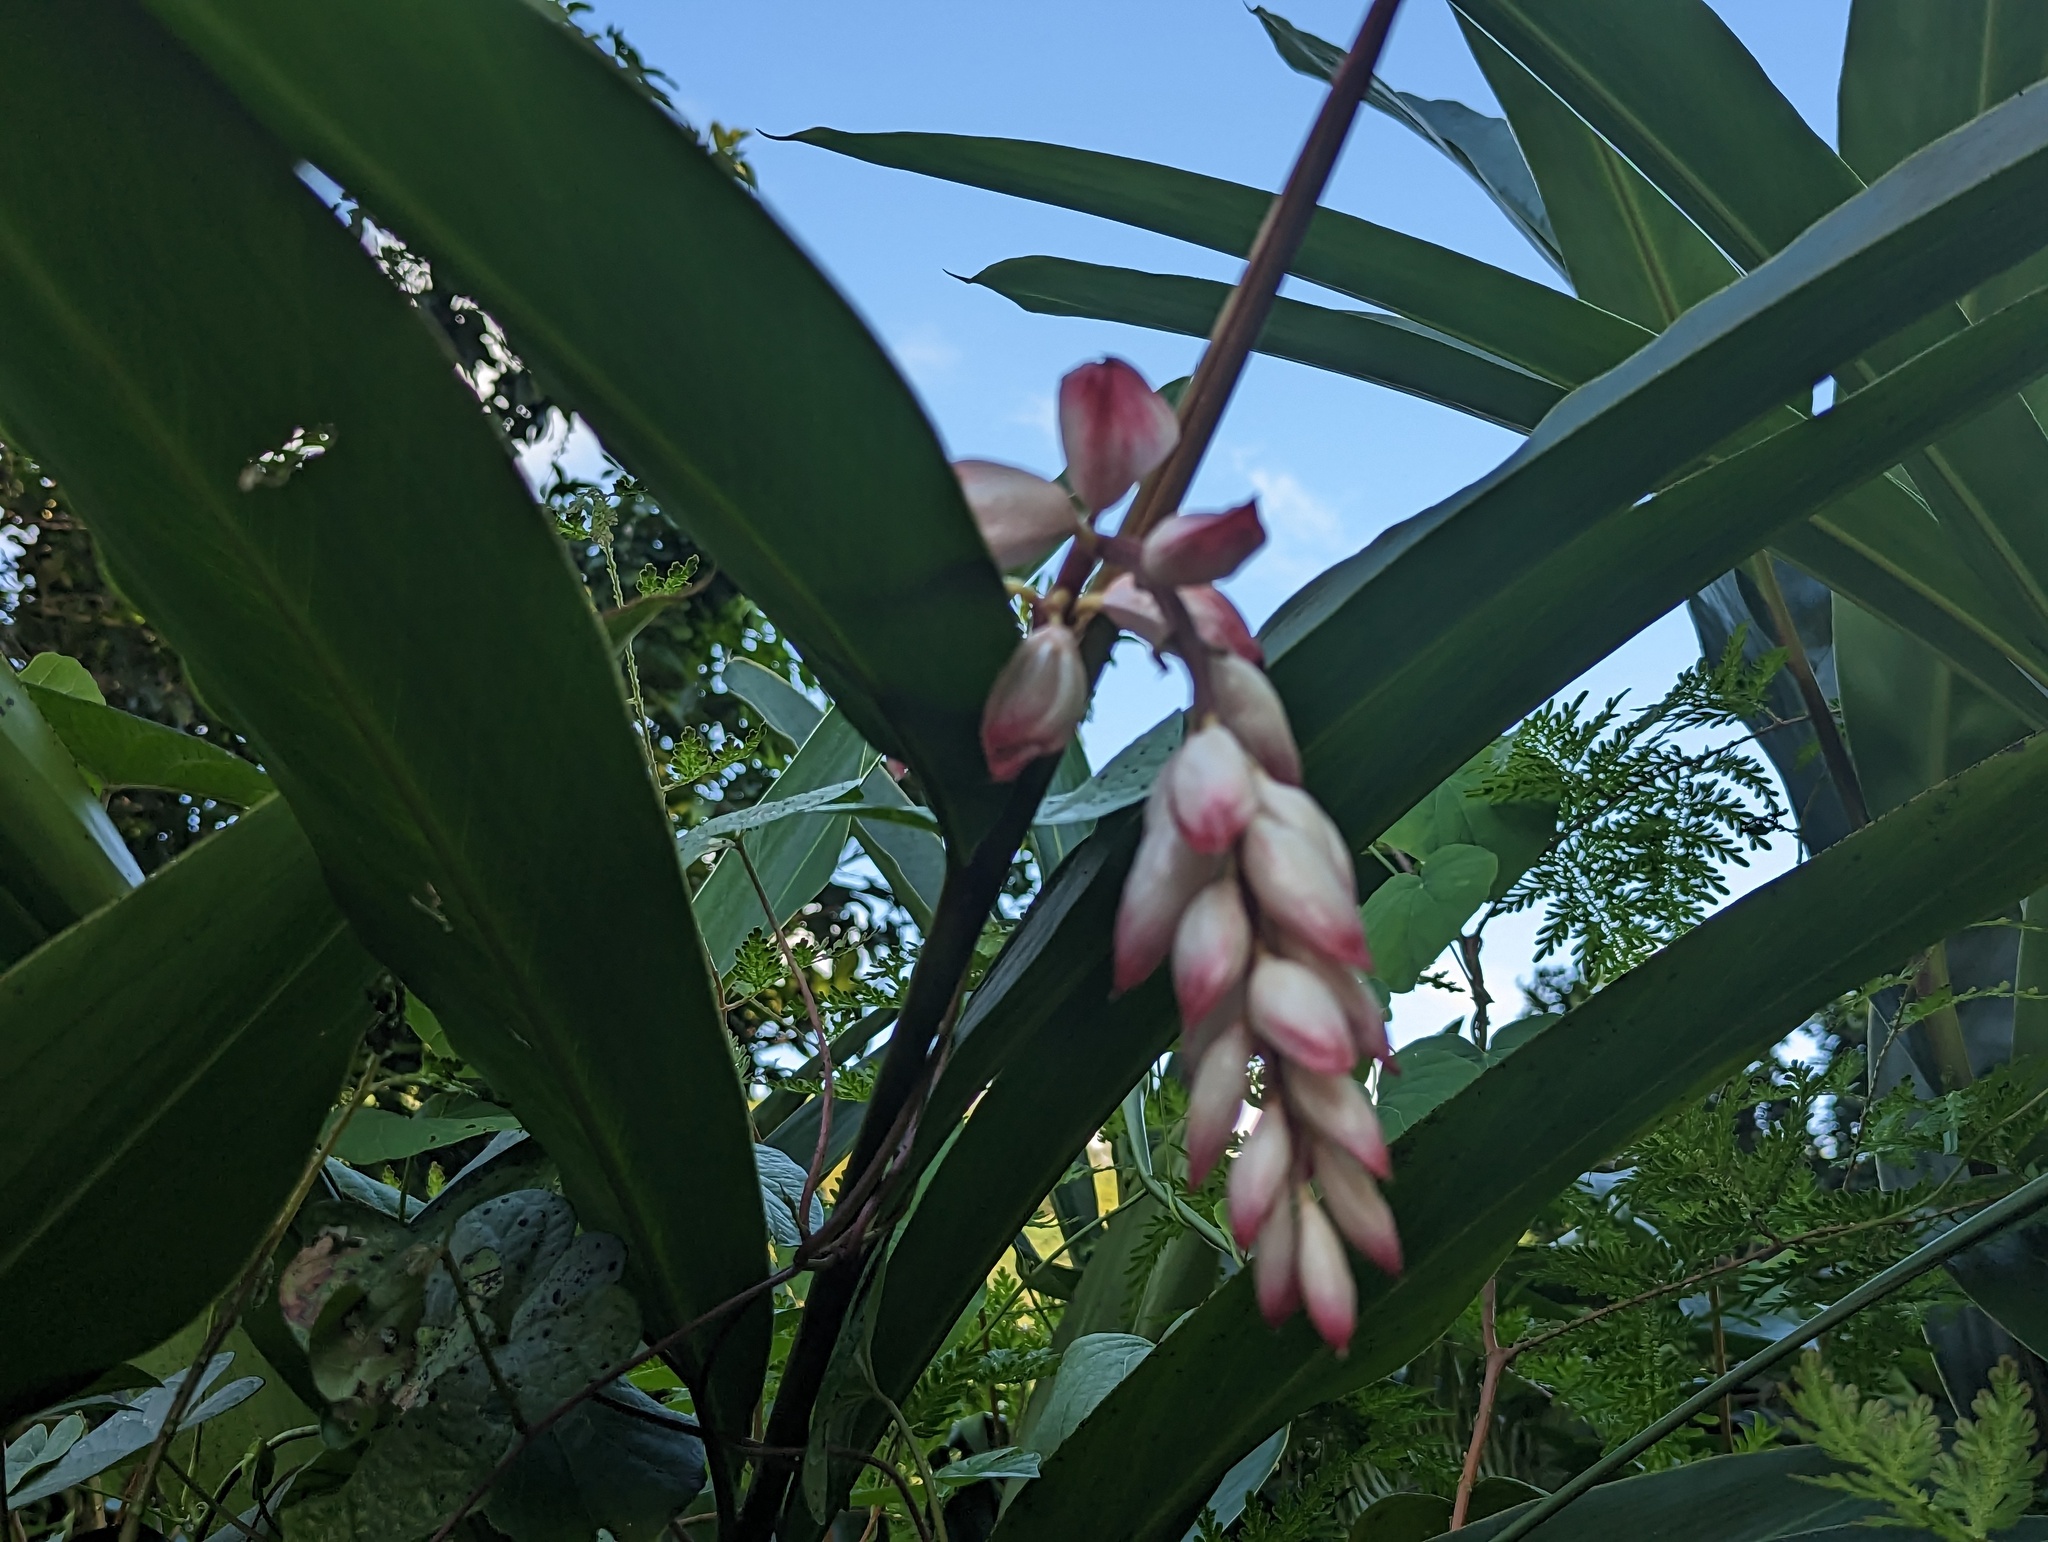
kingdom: Plantae
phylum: Tracheophyta
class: Liliopsida
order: Zingiberales
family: Zingiberaceae
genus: Alpinia
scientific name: Alpinia zerumbet
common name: Shellplant
